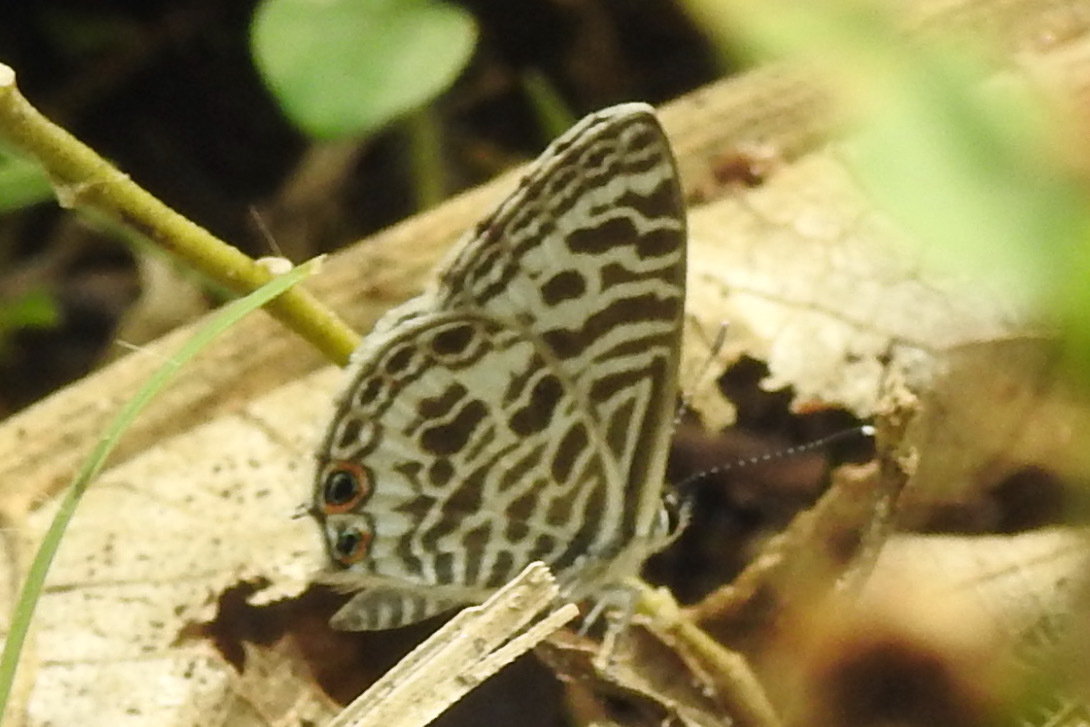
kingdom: Animalia
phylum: Arthropoda
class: Insecta
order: Lepidoptera
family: Lycaenidae
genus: Leptotes
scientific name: Leptotes plinius
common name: Zebra blue
